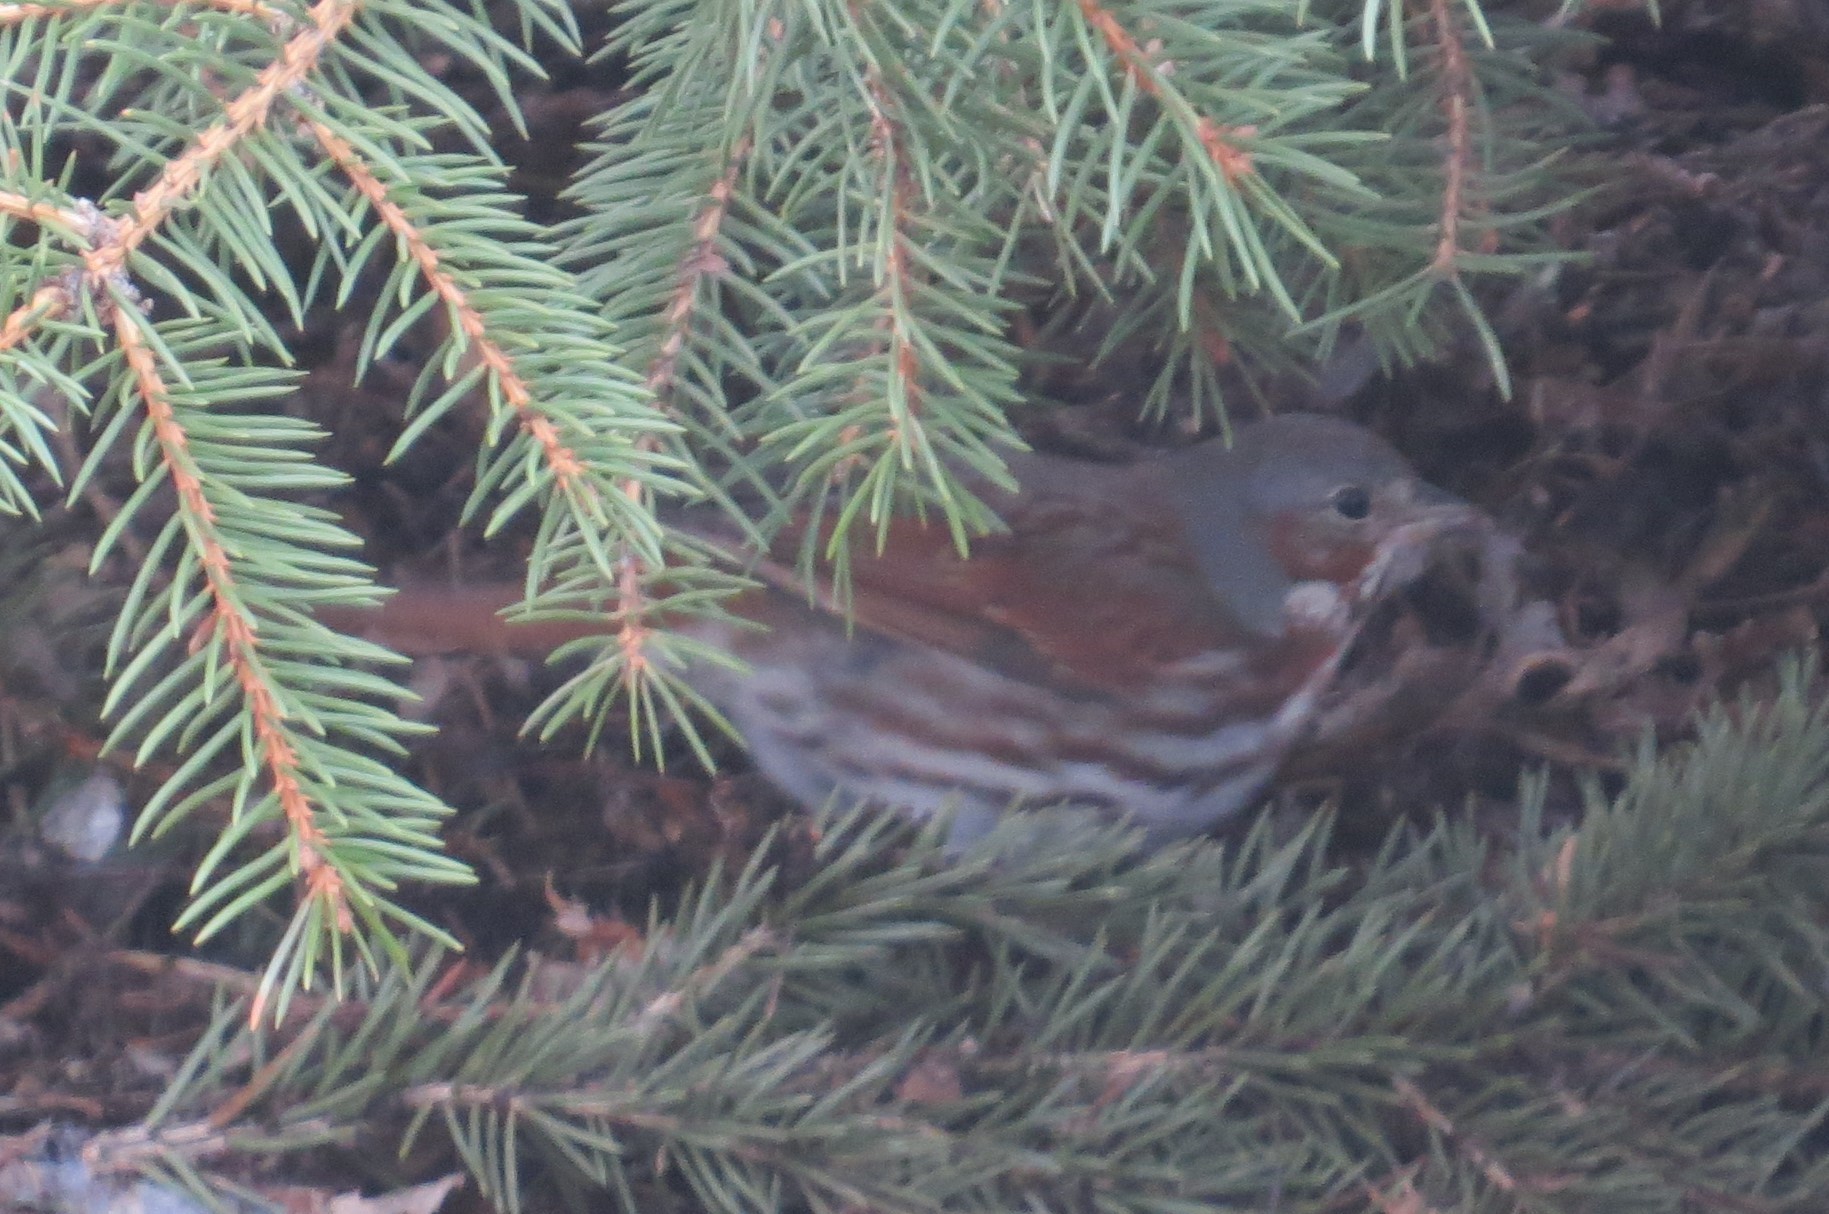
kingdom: Animalia
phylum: Chordata
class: Aves
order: Passeriformes
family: Passerellidae
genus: Passerella
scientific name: Passerella iliaca
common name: Fox sparrow
